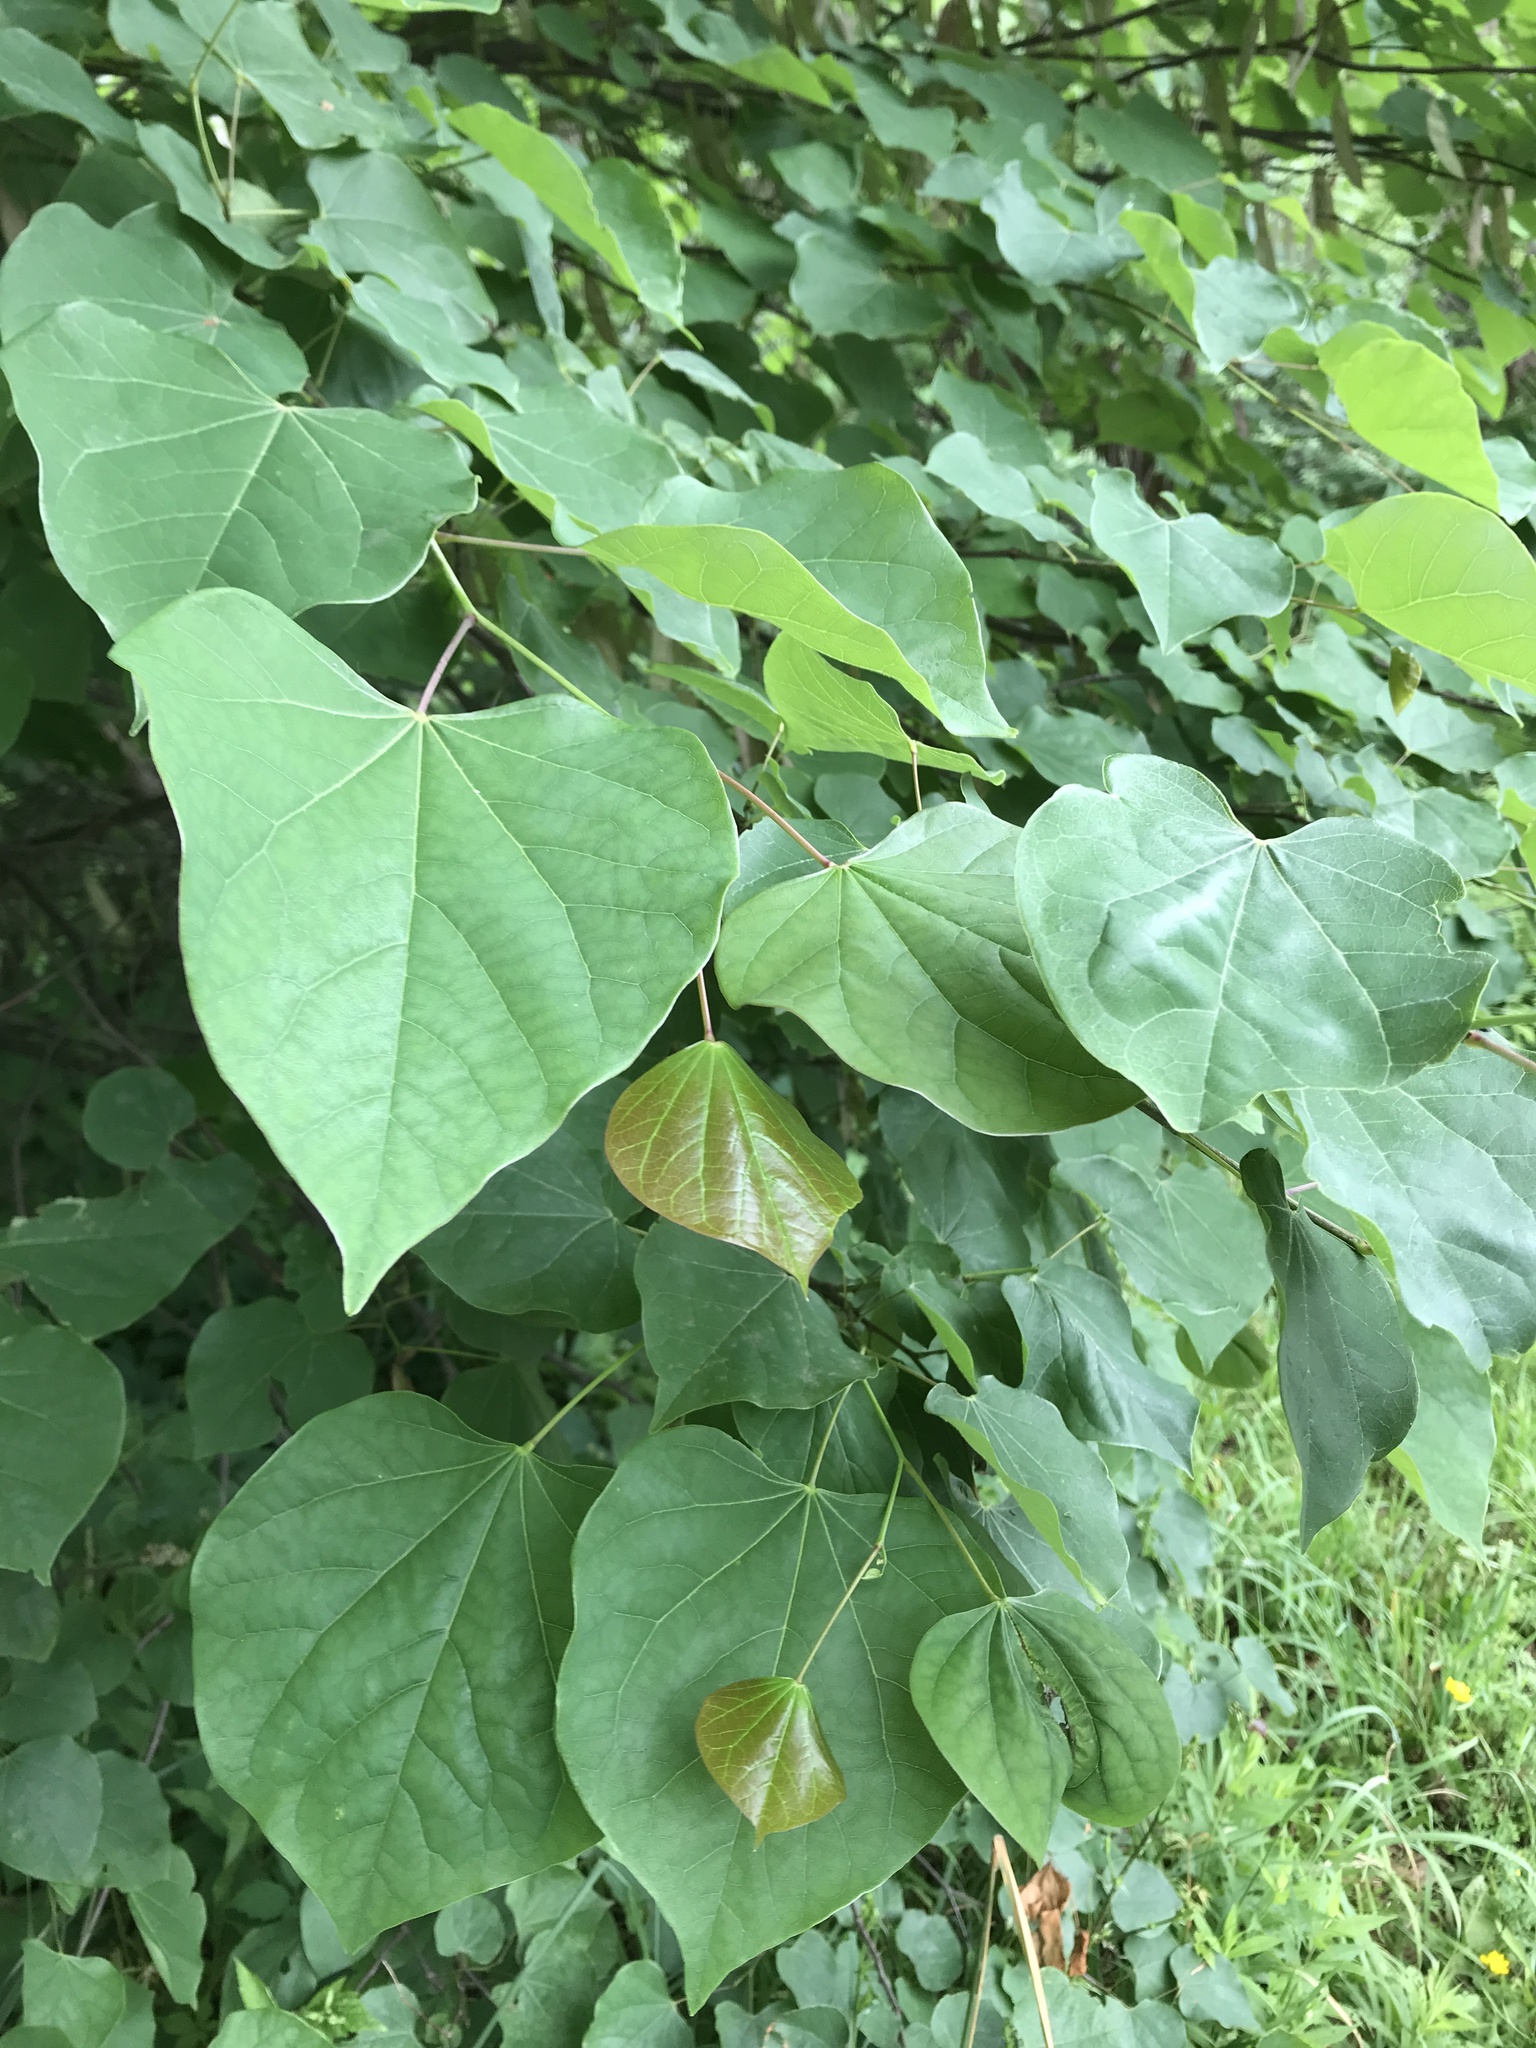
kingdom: Plantae
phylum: Tracheophyta
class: Magnoliopsida
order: Fabales
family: Fabaceae
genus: Cercis
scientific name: Cercis canadensis
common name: Eastern redbud
